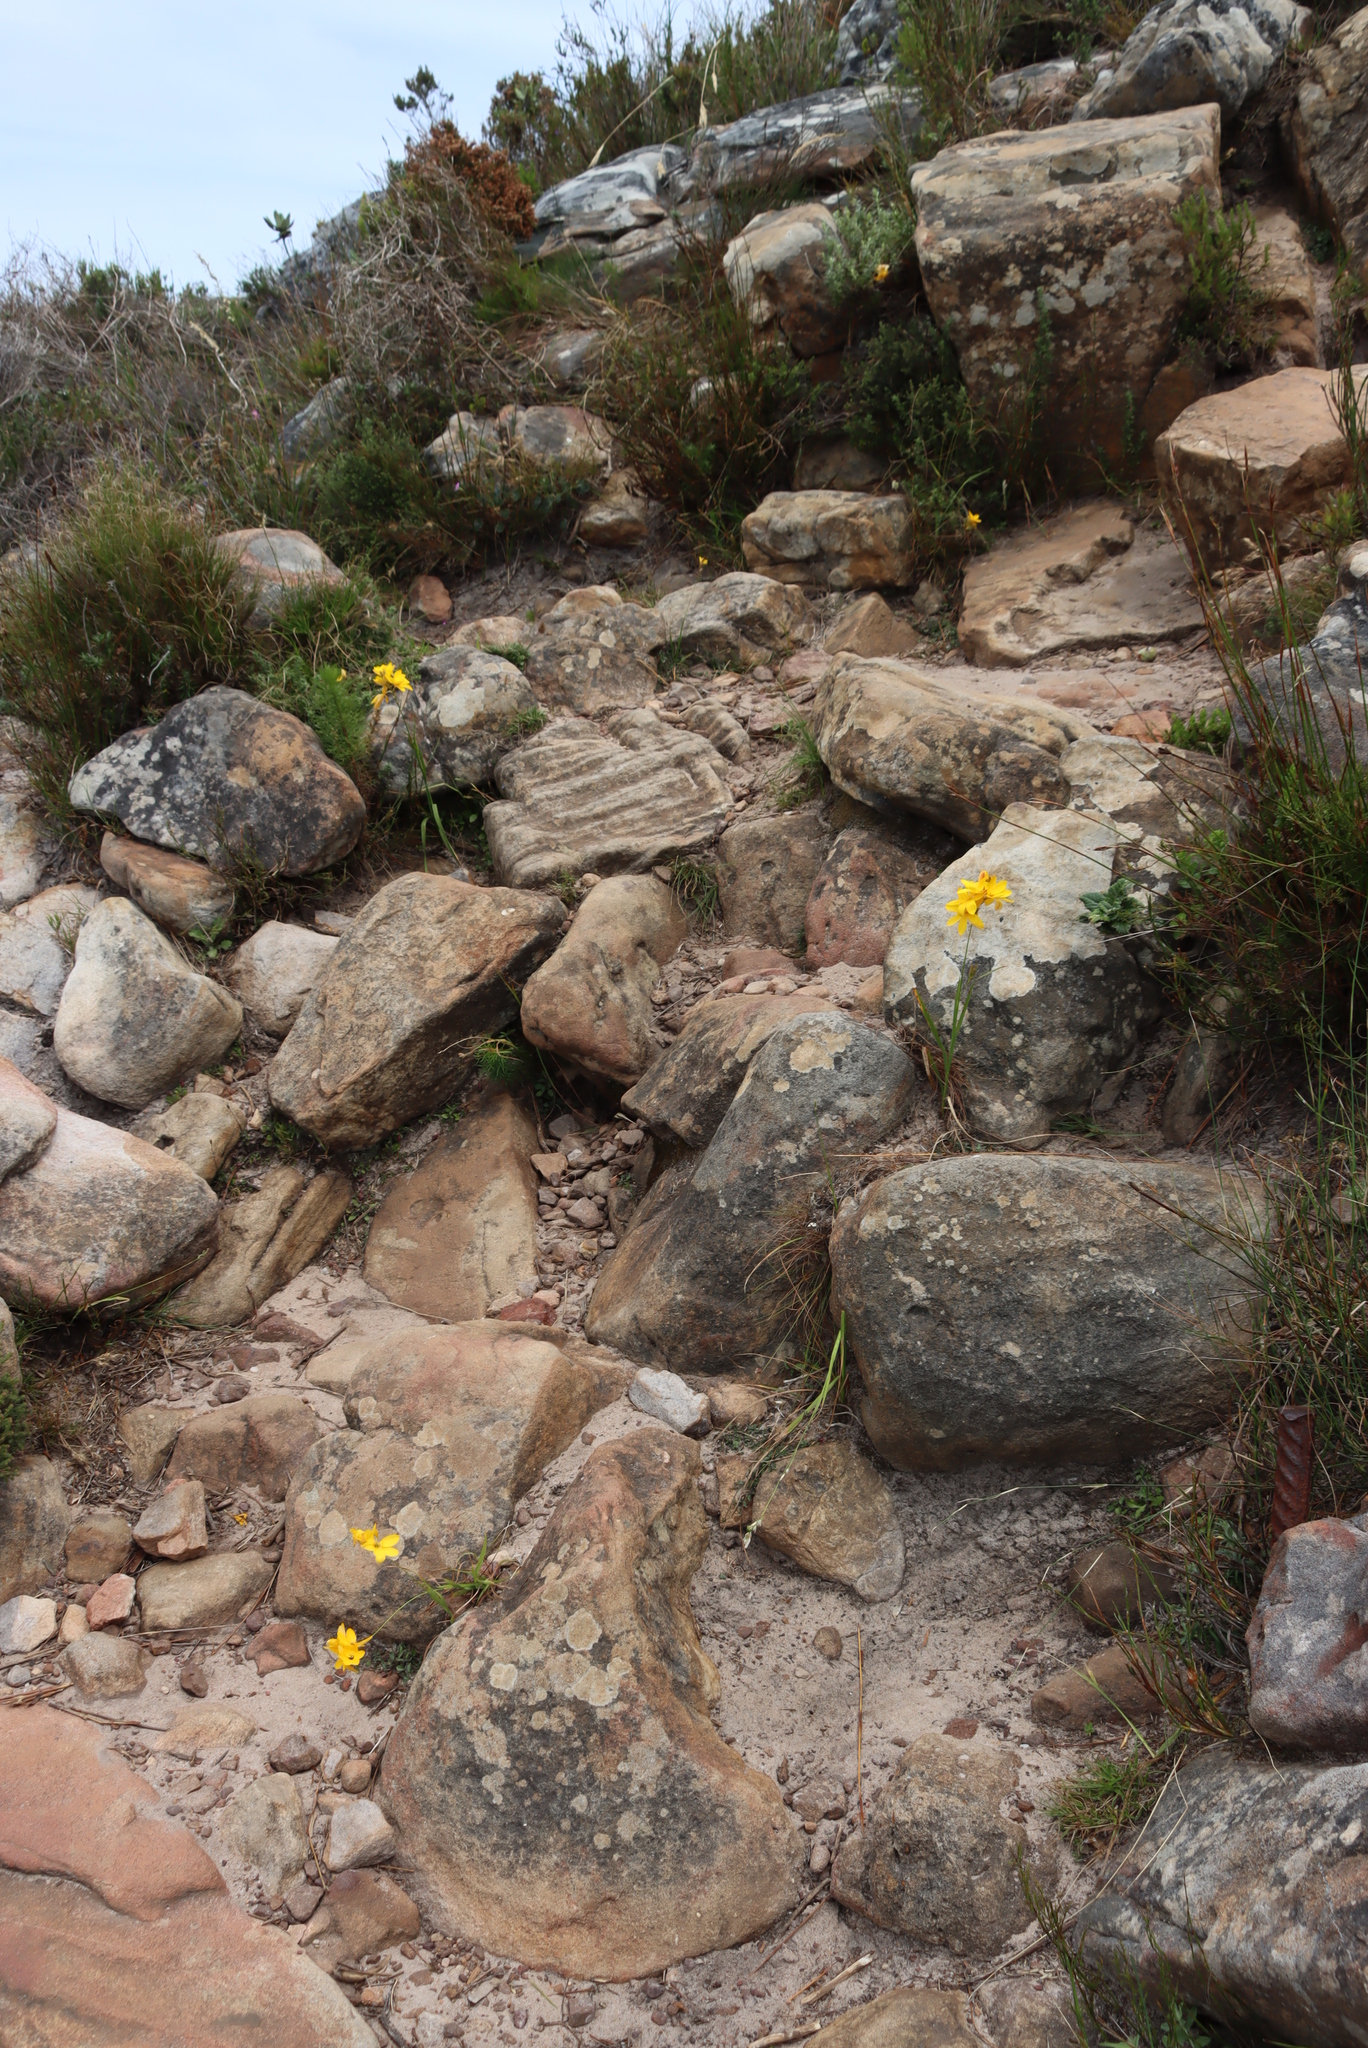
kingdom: Plantae
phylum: Tracheophyta
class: Liliopsida
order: Asparagales
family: Iridaceae
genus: Ixia
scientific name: Ixia dubia
